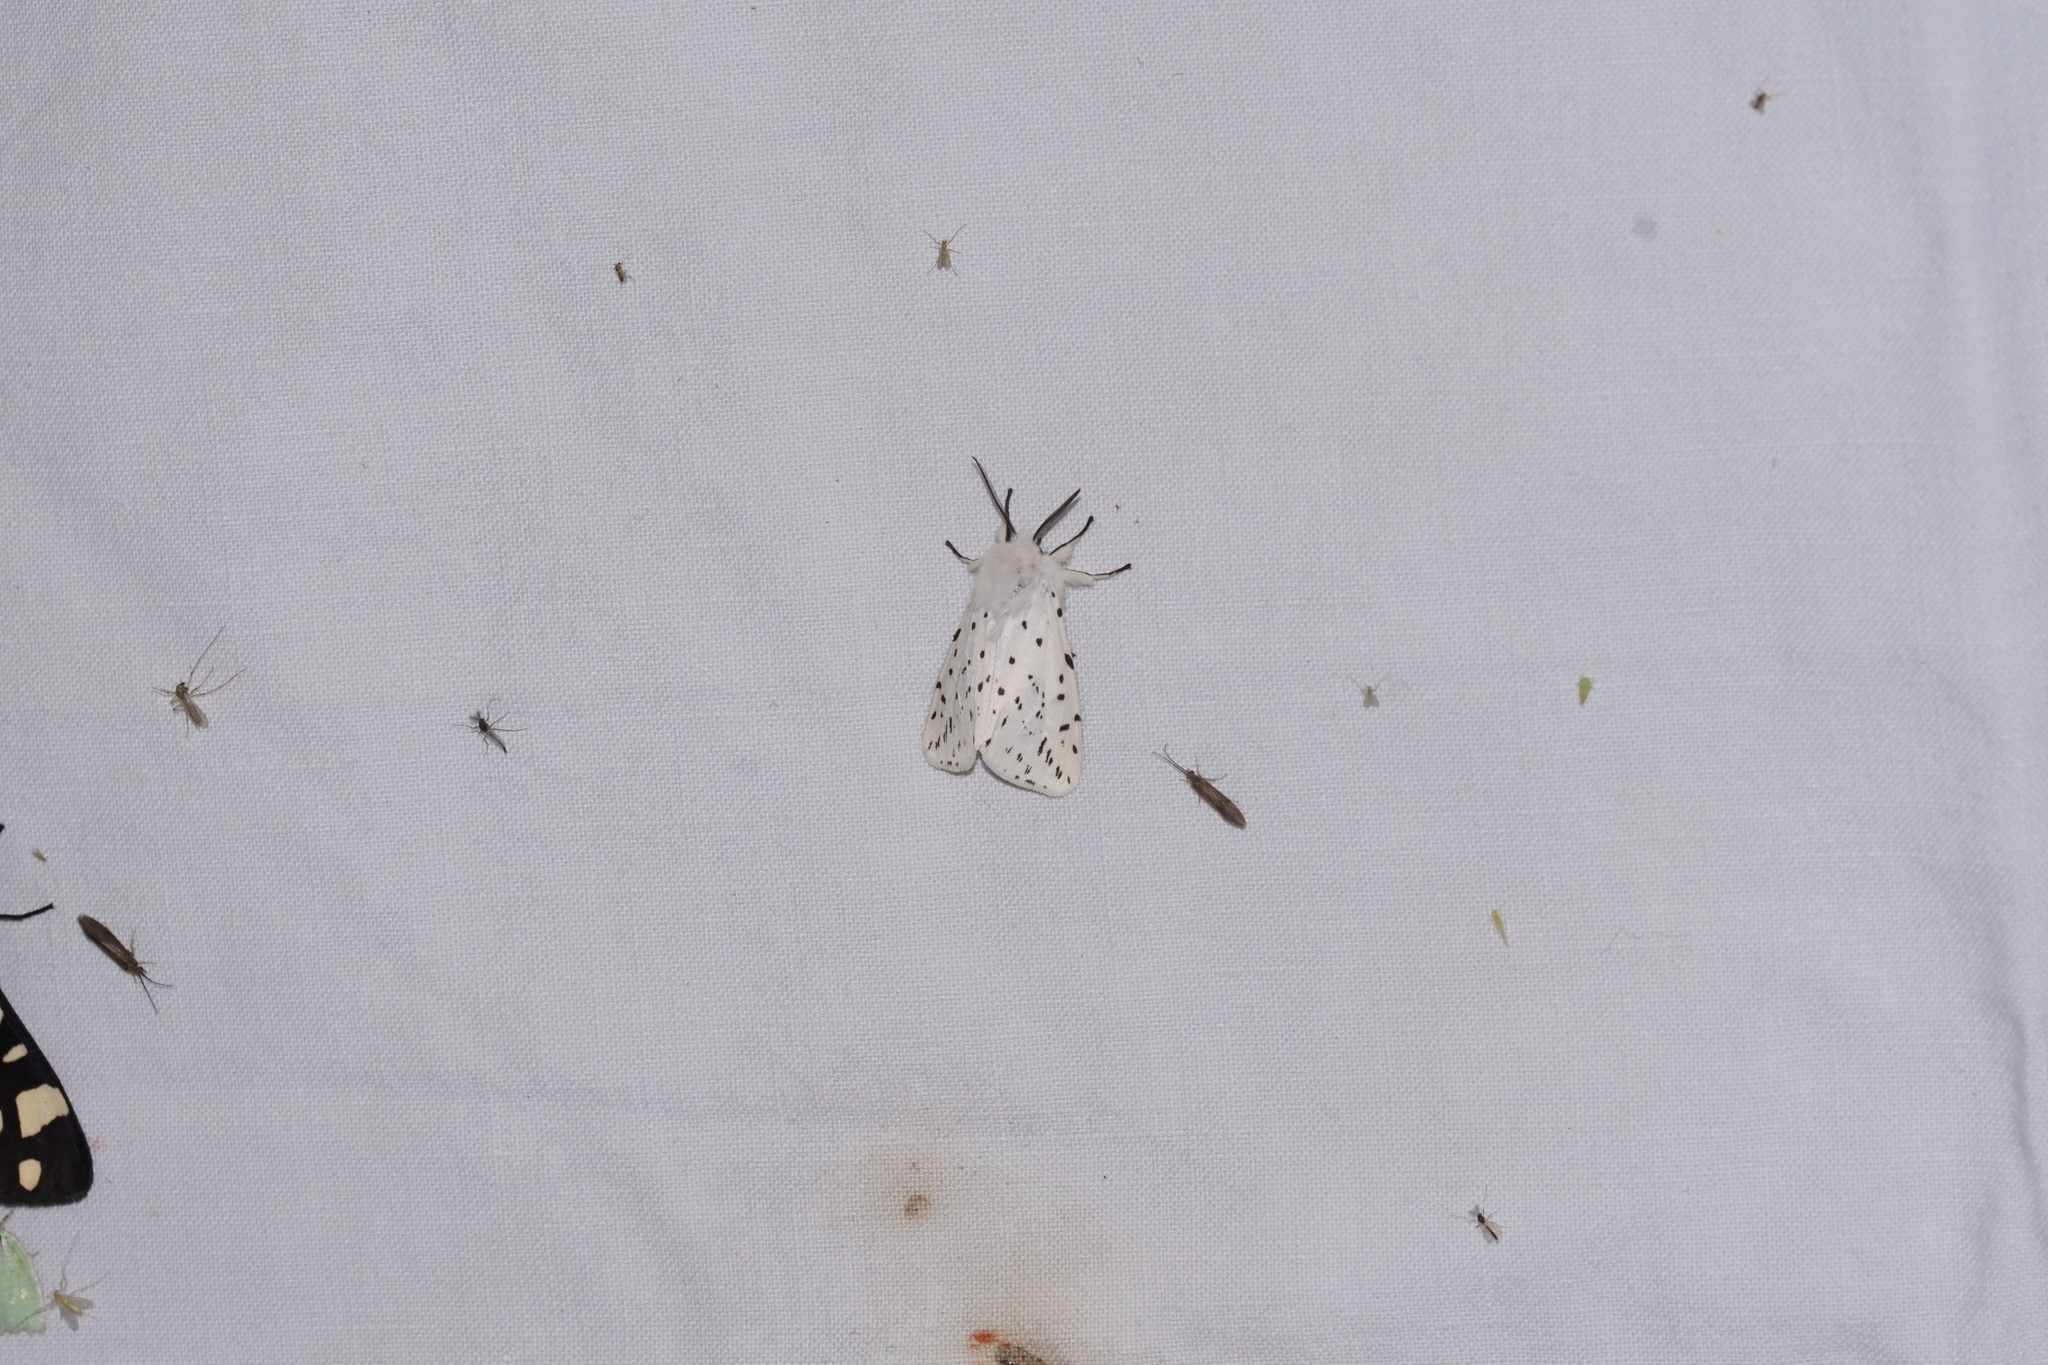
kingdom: Animalia
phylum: Arthropoda
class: Insecta
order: Lepidoptera
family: Erebidae
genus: Spilosoma
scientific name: Spilosoma lubricipeda
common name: White ermine
